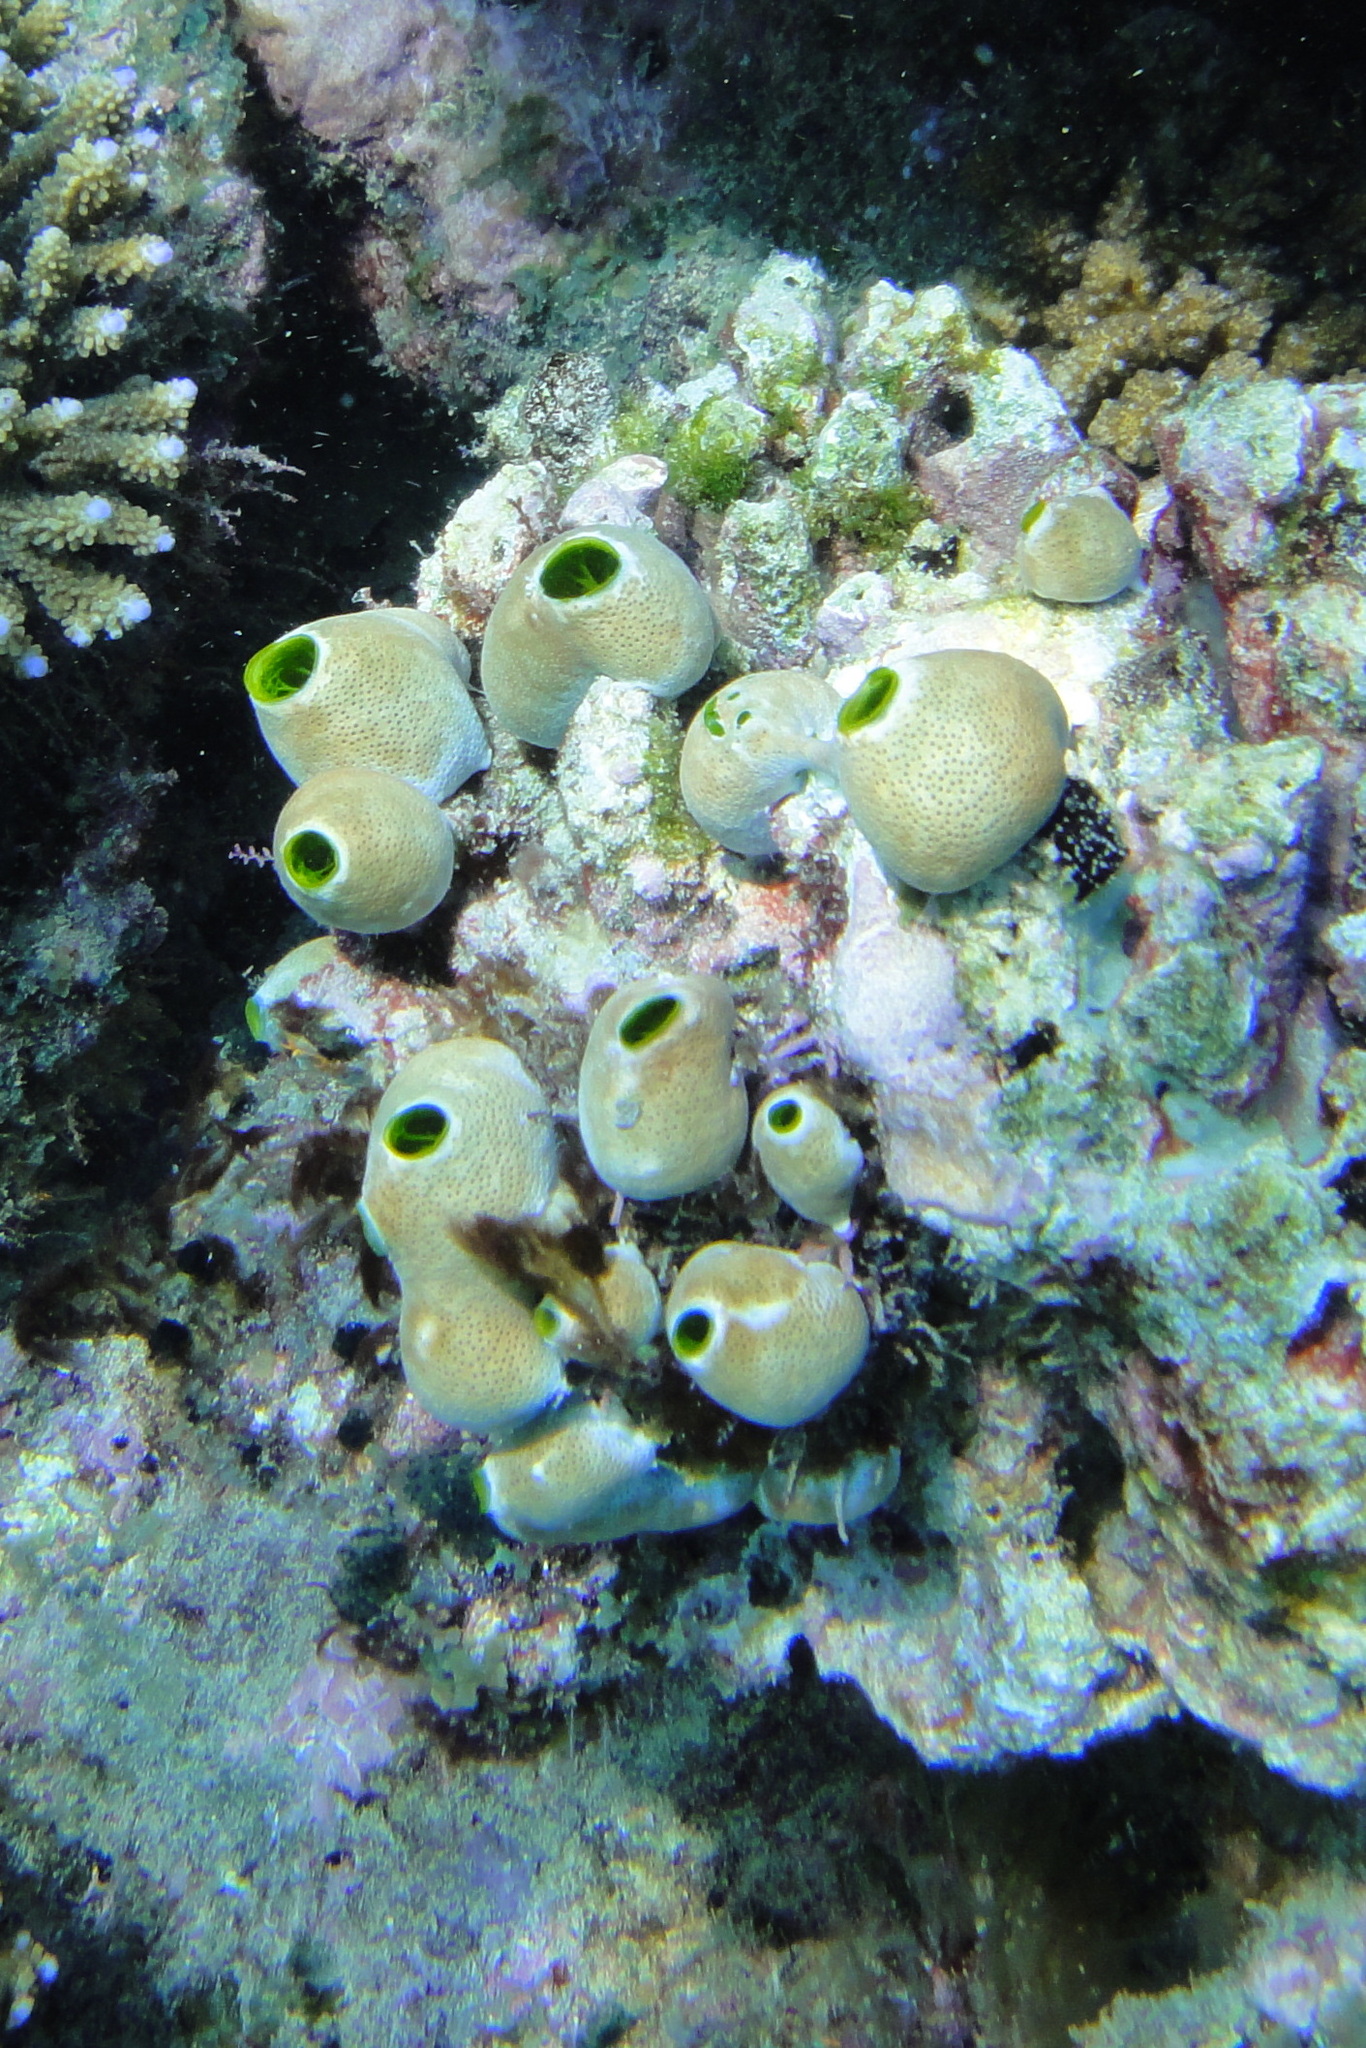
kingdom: Animalia
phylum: Chordata
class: Ascidiacea
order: Aplousobranchia
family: Didemnidae
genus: Didemnum
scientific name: Didemnum molle
